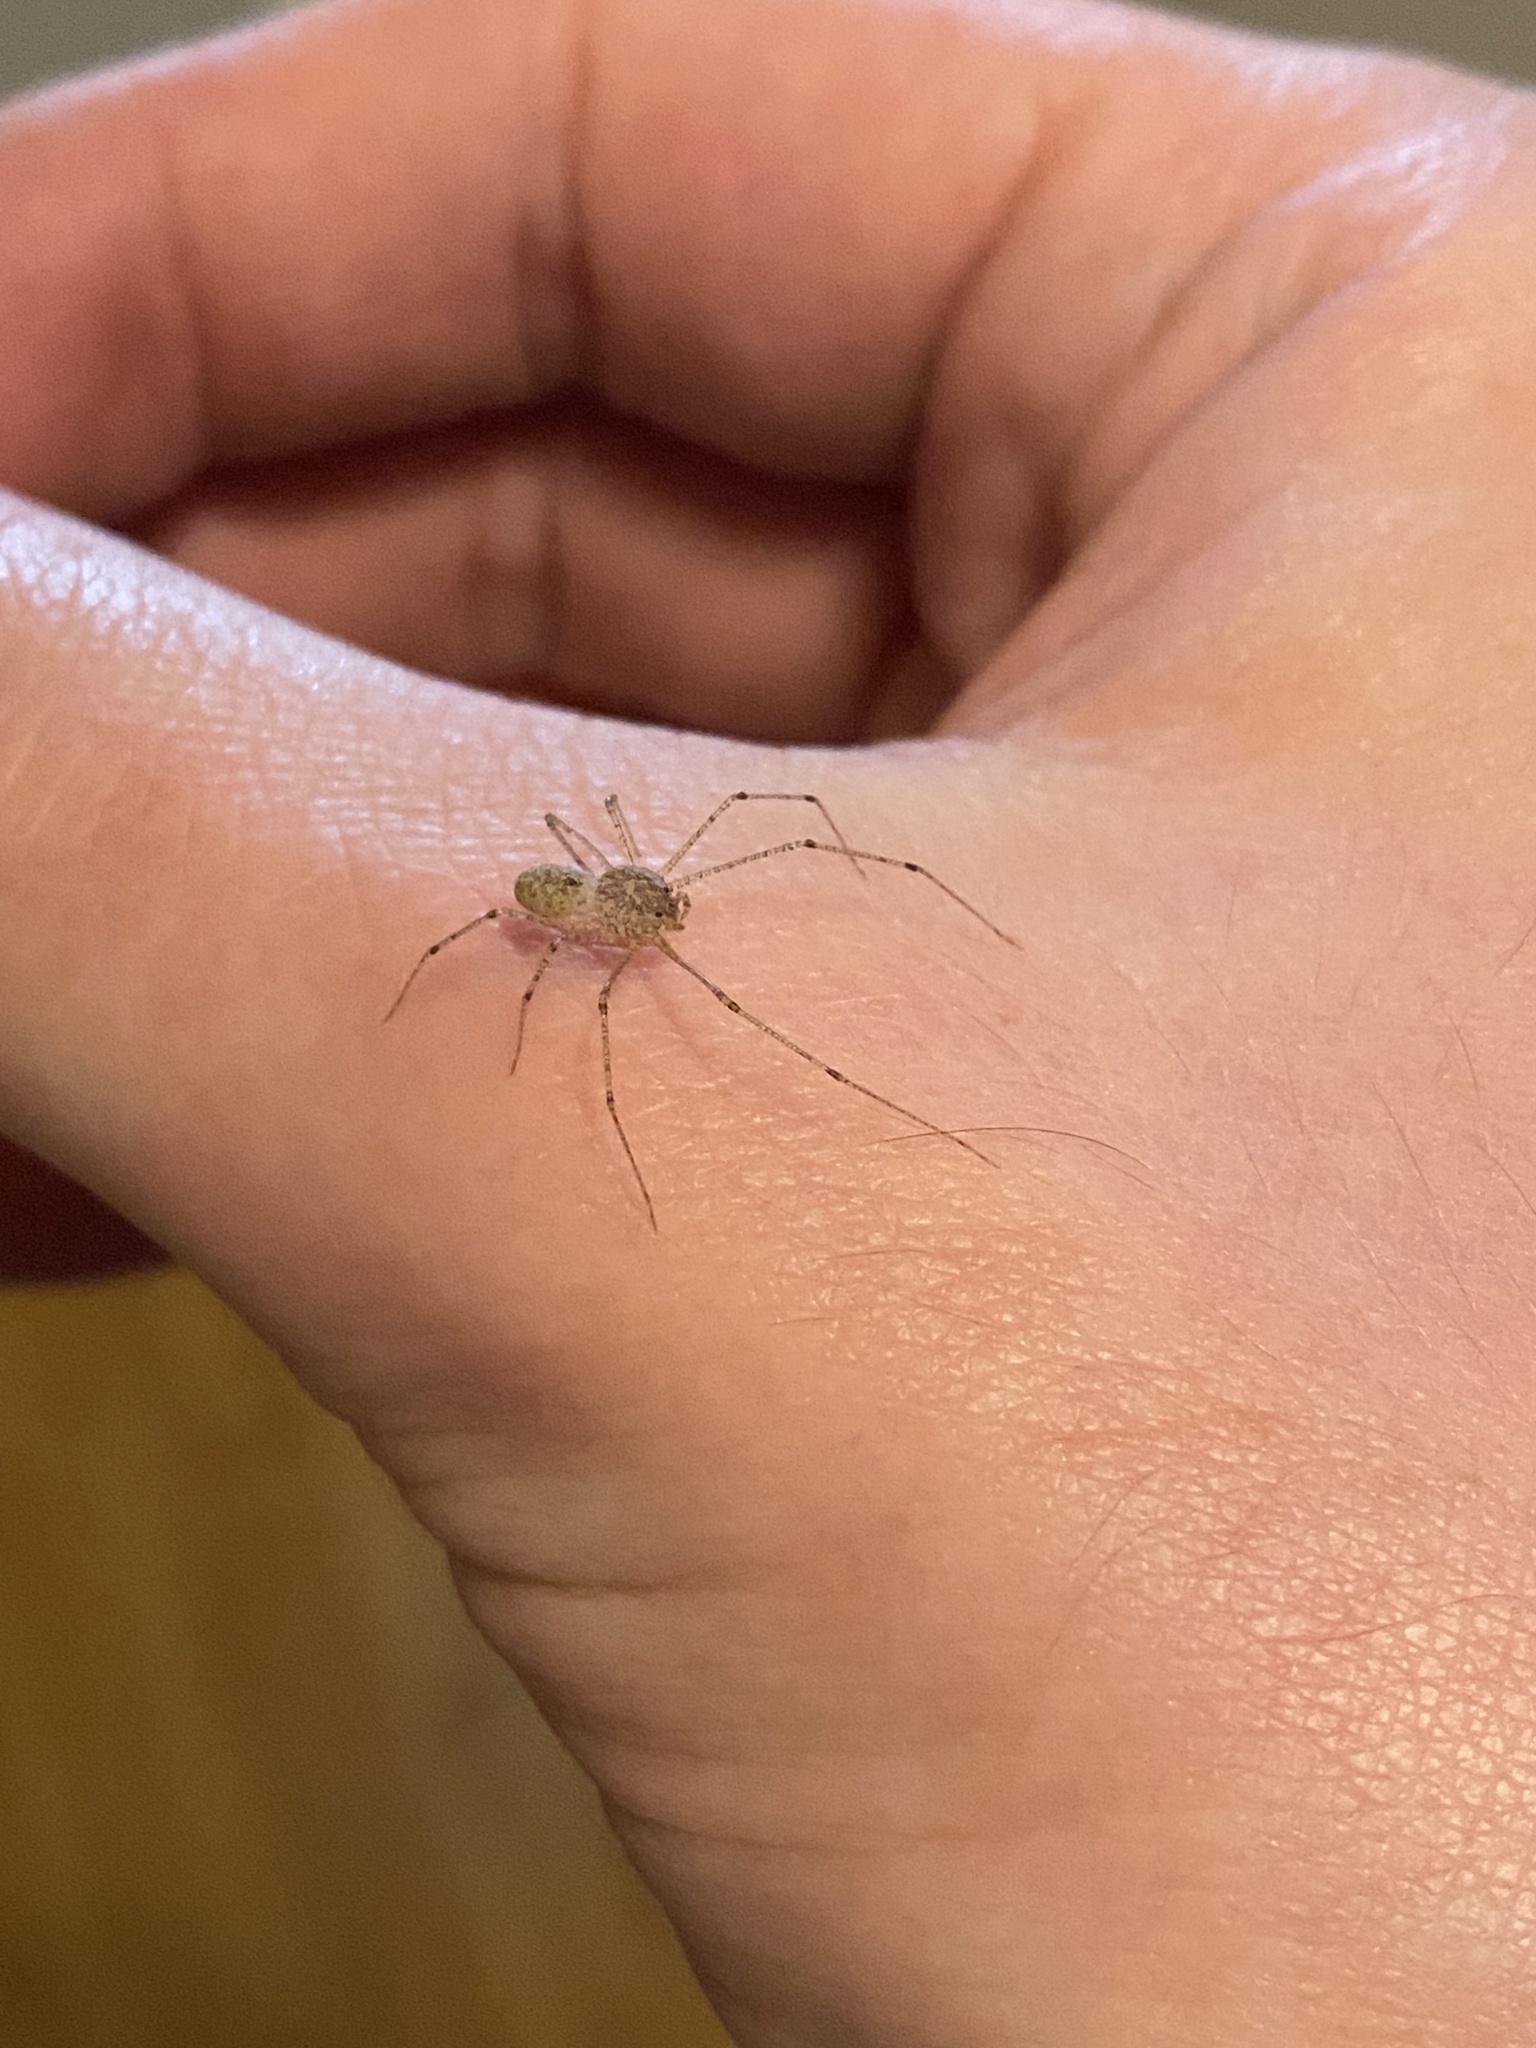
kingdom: Animalia
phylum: Arthropoda
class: Arachnida
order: Araneae
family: Scytodidae
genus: Scytodes
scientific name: Scytodes atlacoya
